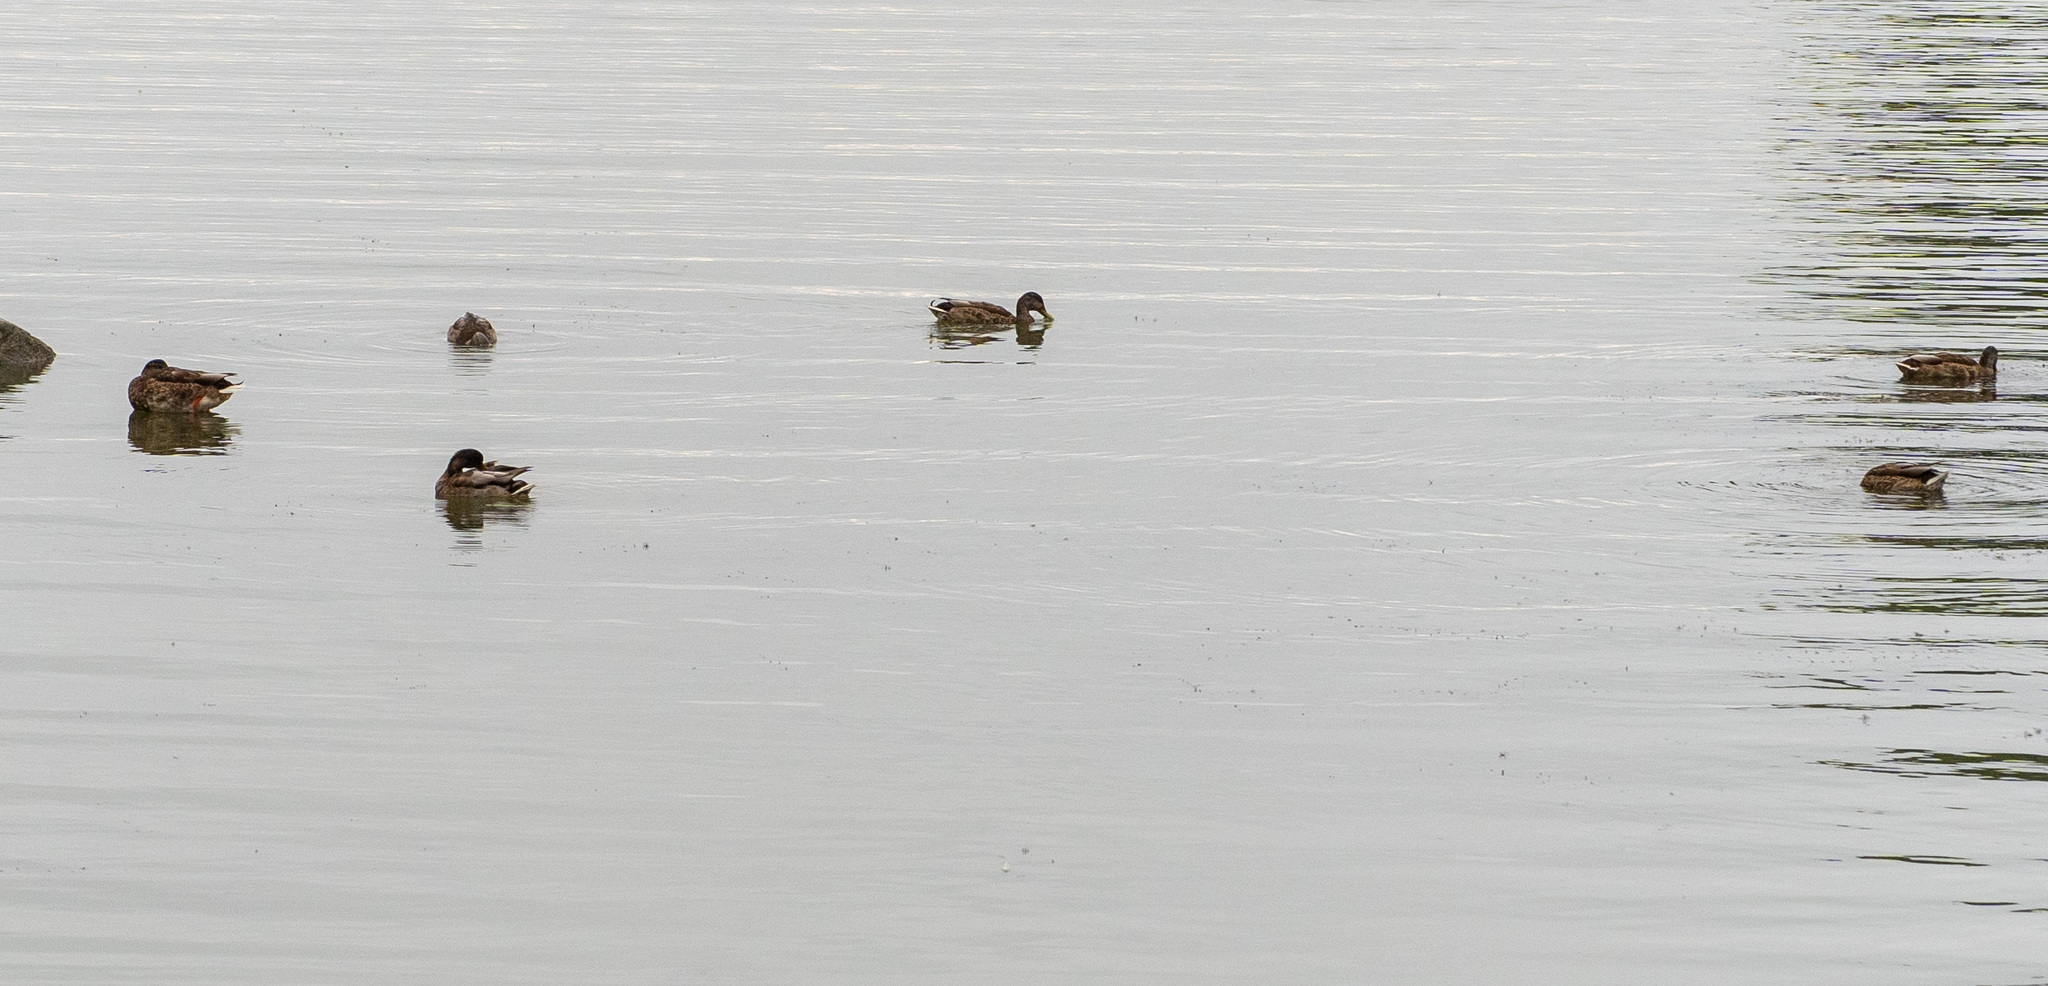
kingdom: Animalia
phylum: Chordata
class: Aves
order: Anseriformes
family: Anatidae
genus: Anas
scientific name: Anas platyrhynchos
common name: Mallard
